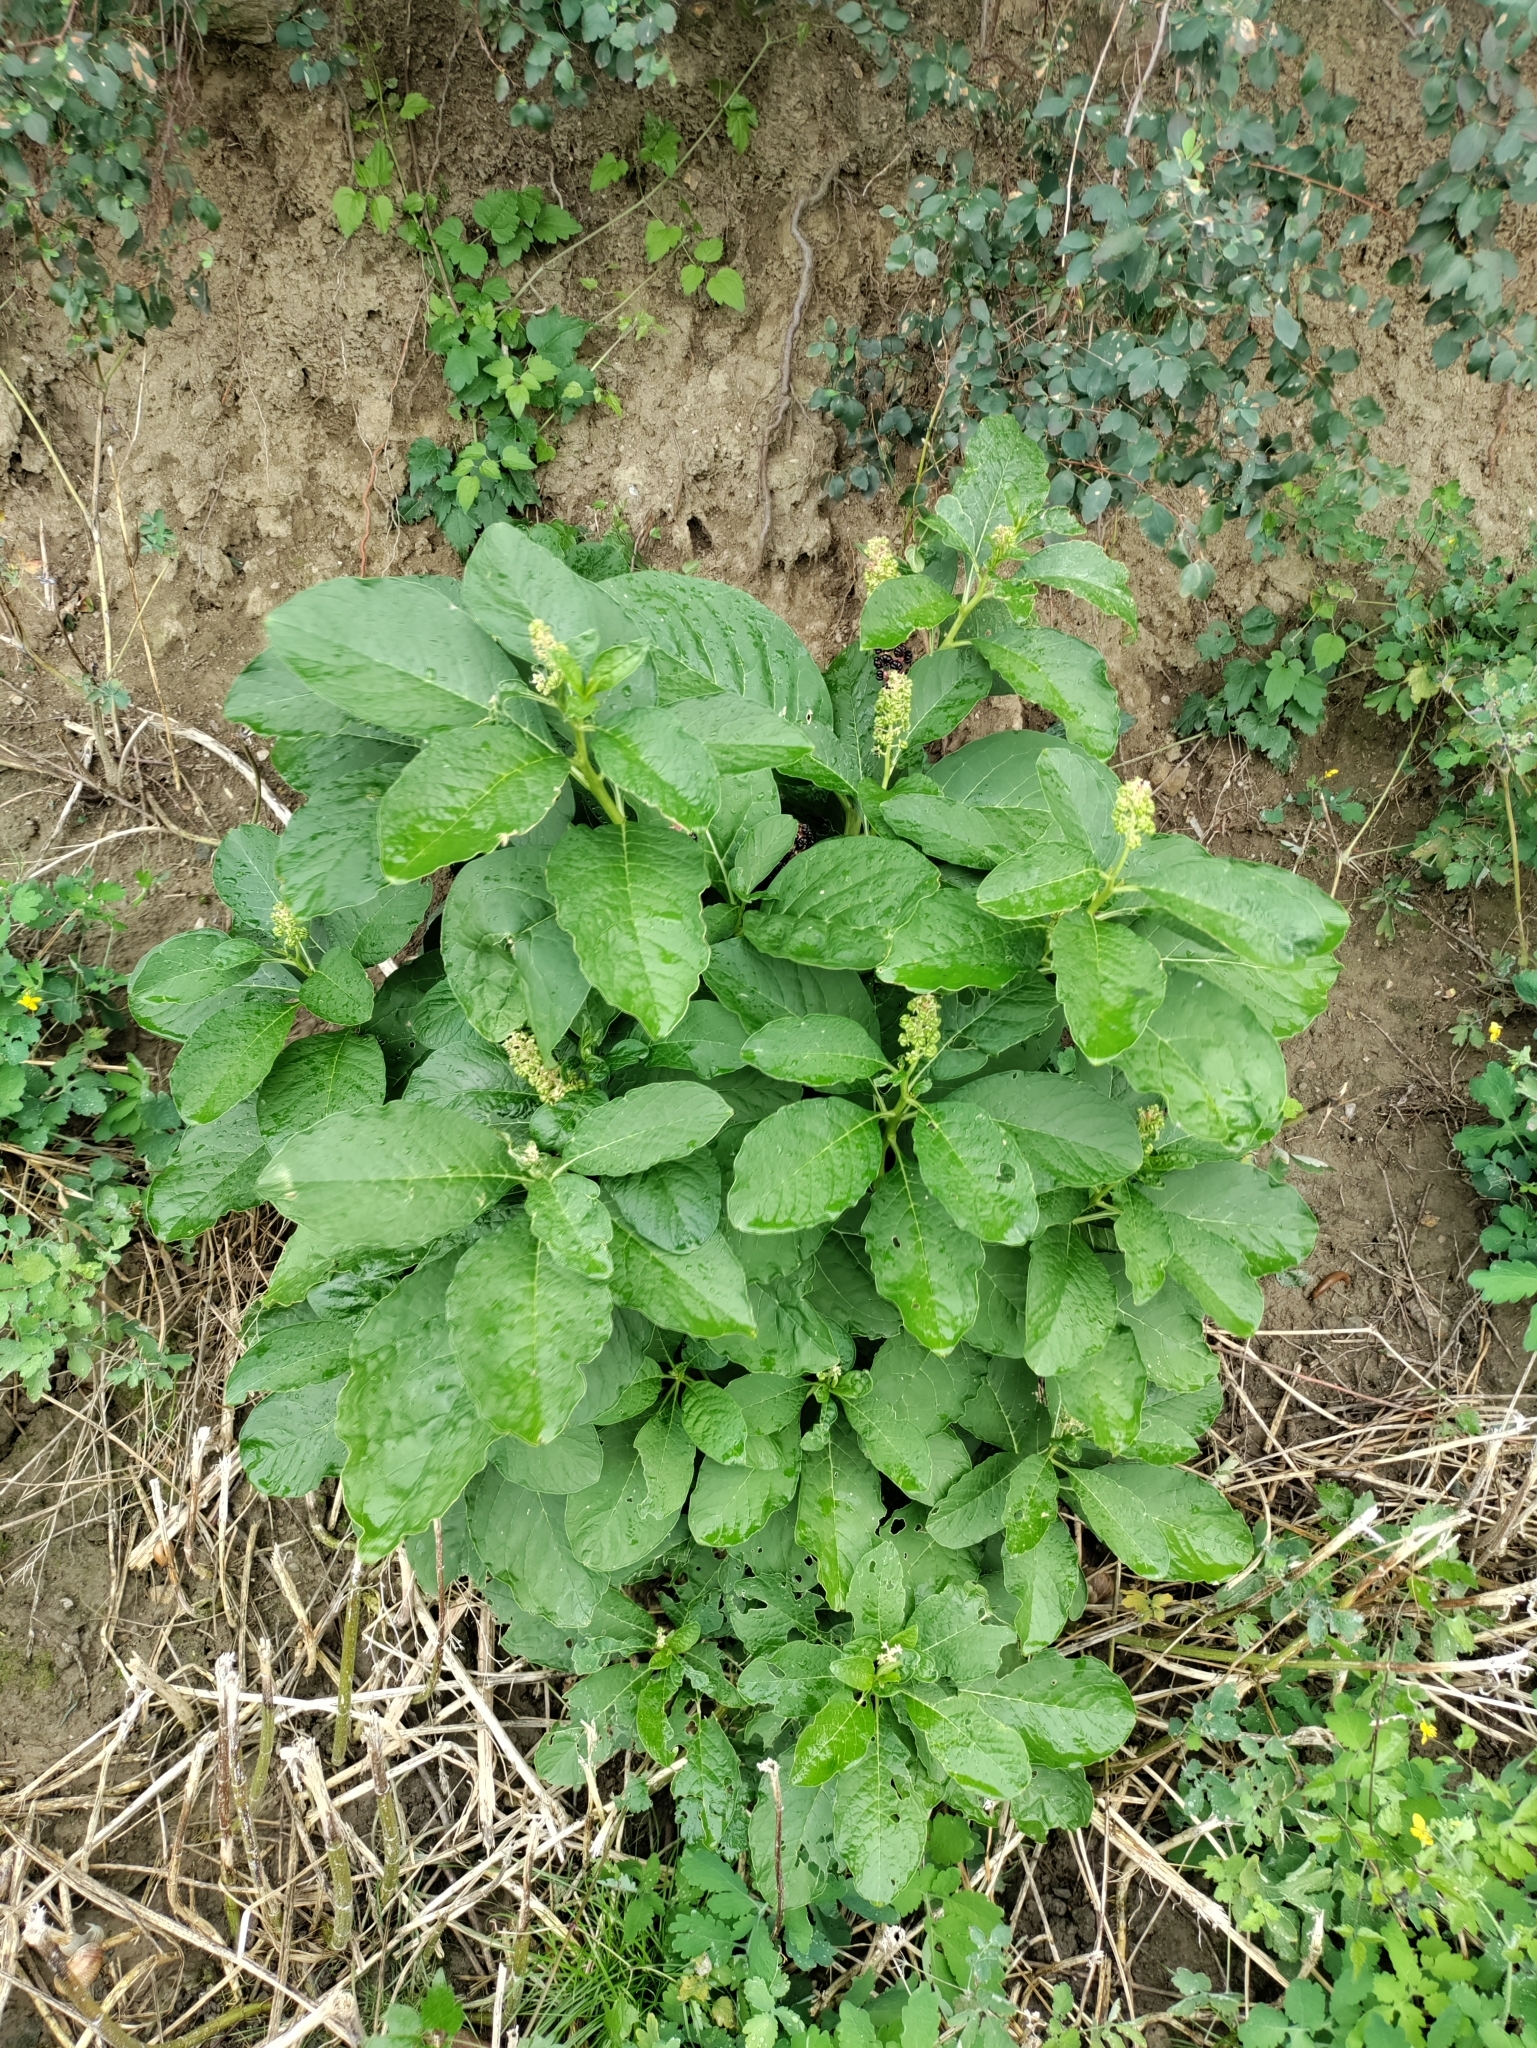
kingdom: Plantae
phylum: Tracheophyta
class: Magnoliopsida
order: Caryophyllales
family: Phytolaccaceae
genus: Phytolacca
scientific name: Phytolacca acinosa
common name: Indian pokeweed
